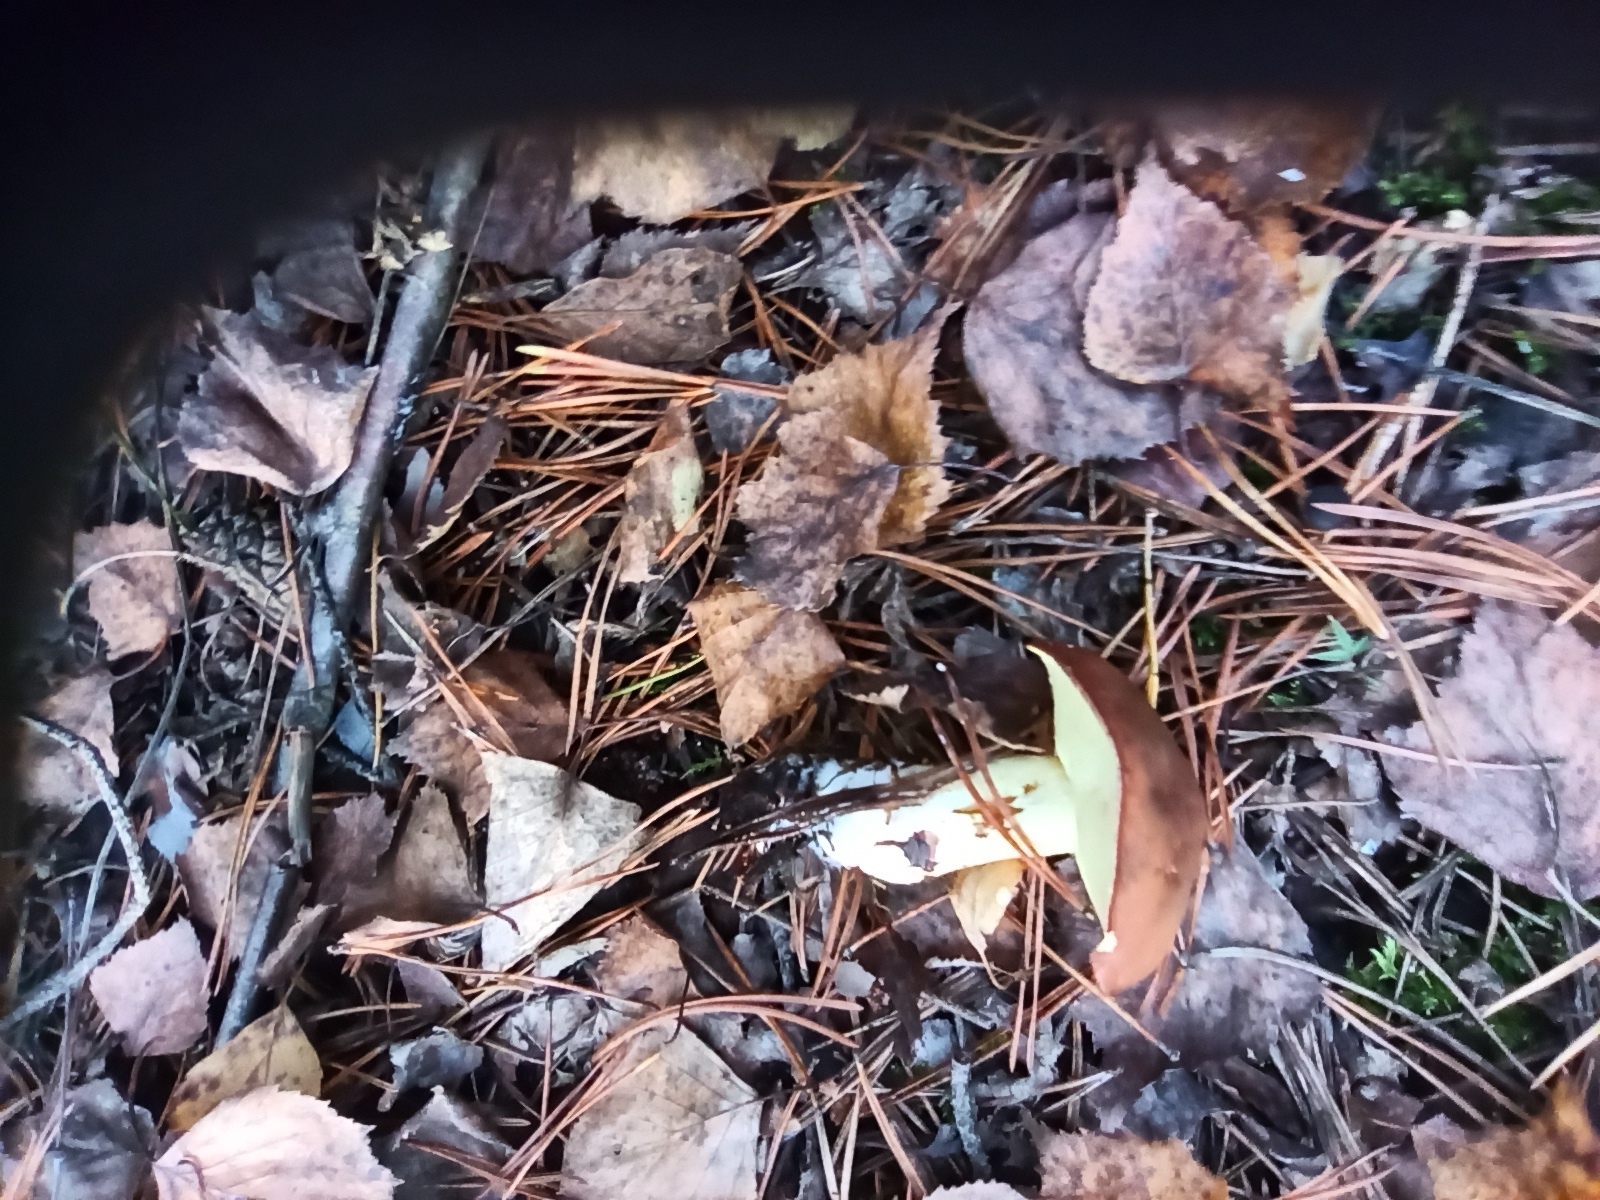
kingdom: Fungi
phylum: Basidiomycota
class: Agaricomycetes
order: Boletales
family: Suillaceae
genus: Suillus
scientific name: Suillus granulatus
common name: Weeping bolete
